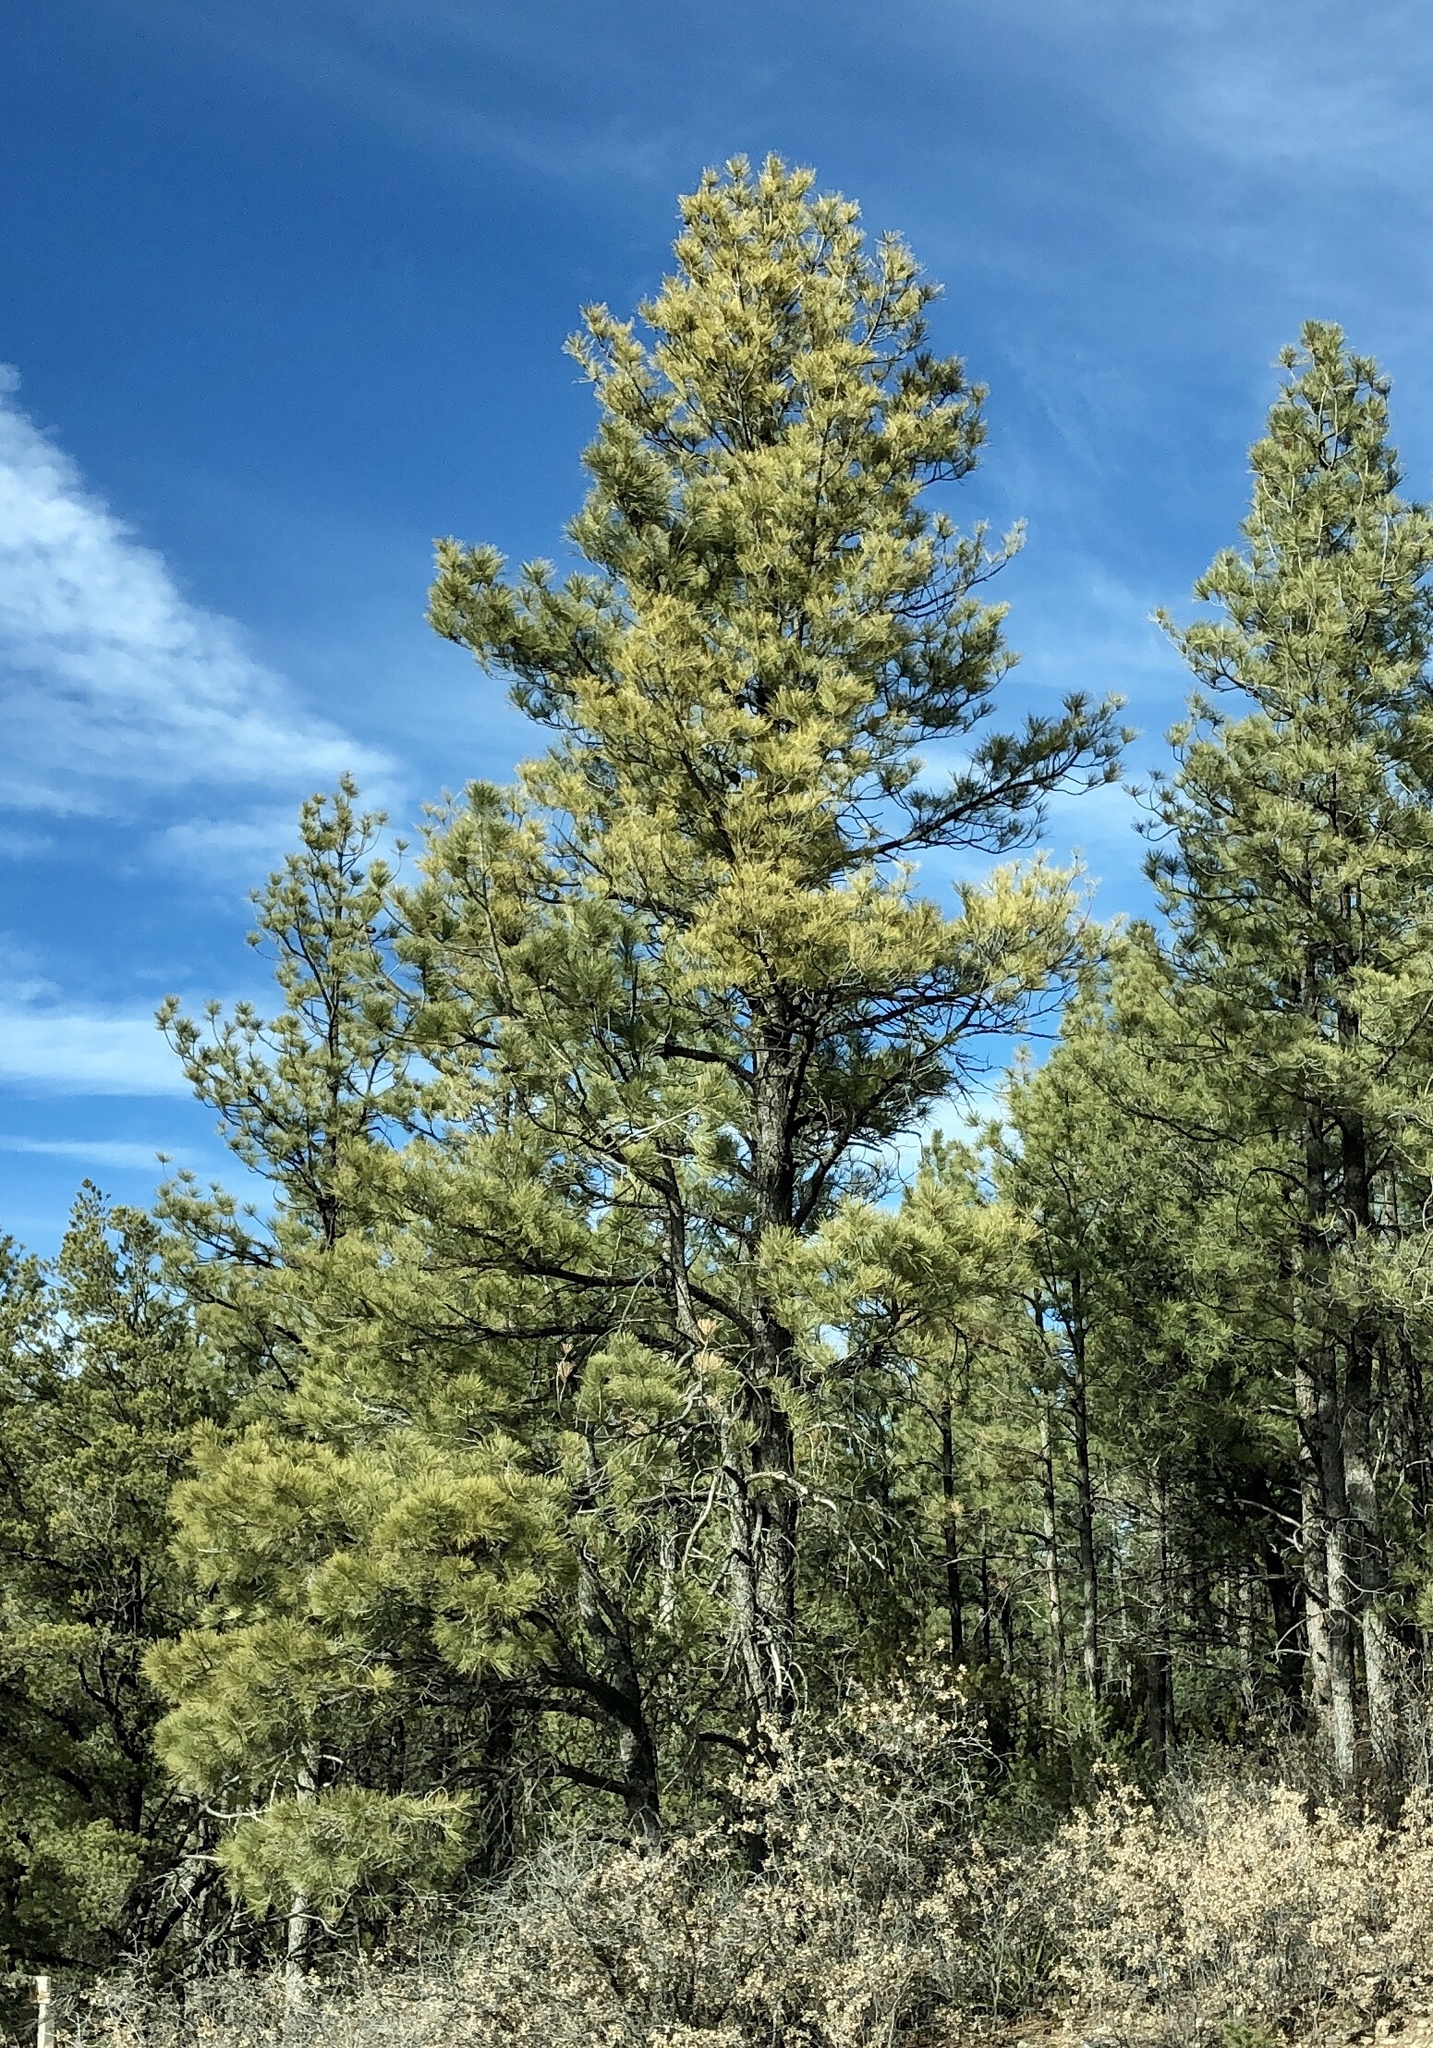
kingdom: Plantae
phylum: Tracheophyta
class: Pinopsida
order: Pinales
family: Pinaceae
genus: Pinus
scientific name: Pinus ponderosa
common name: Western yellow-pine
